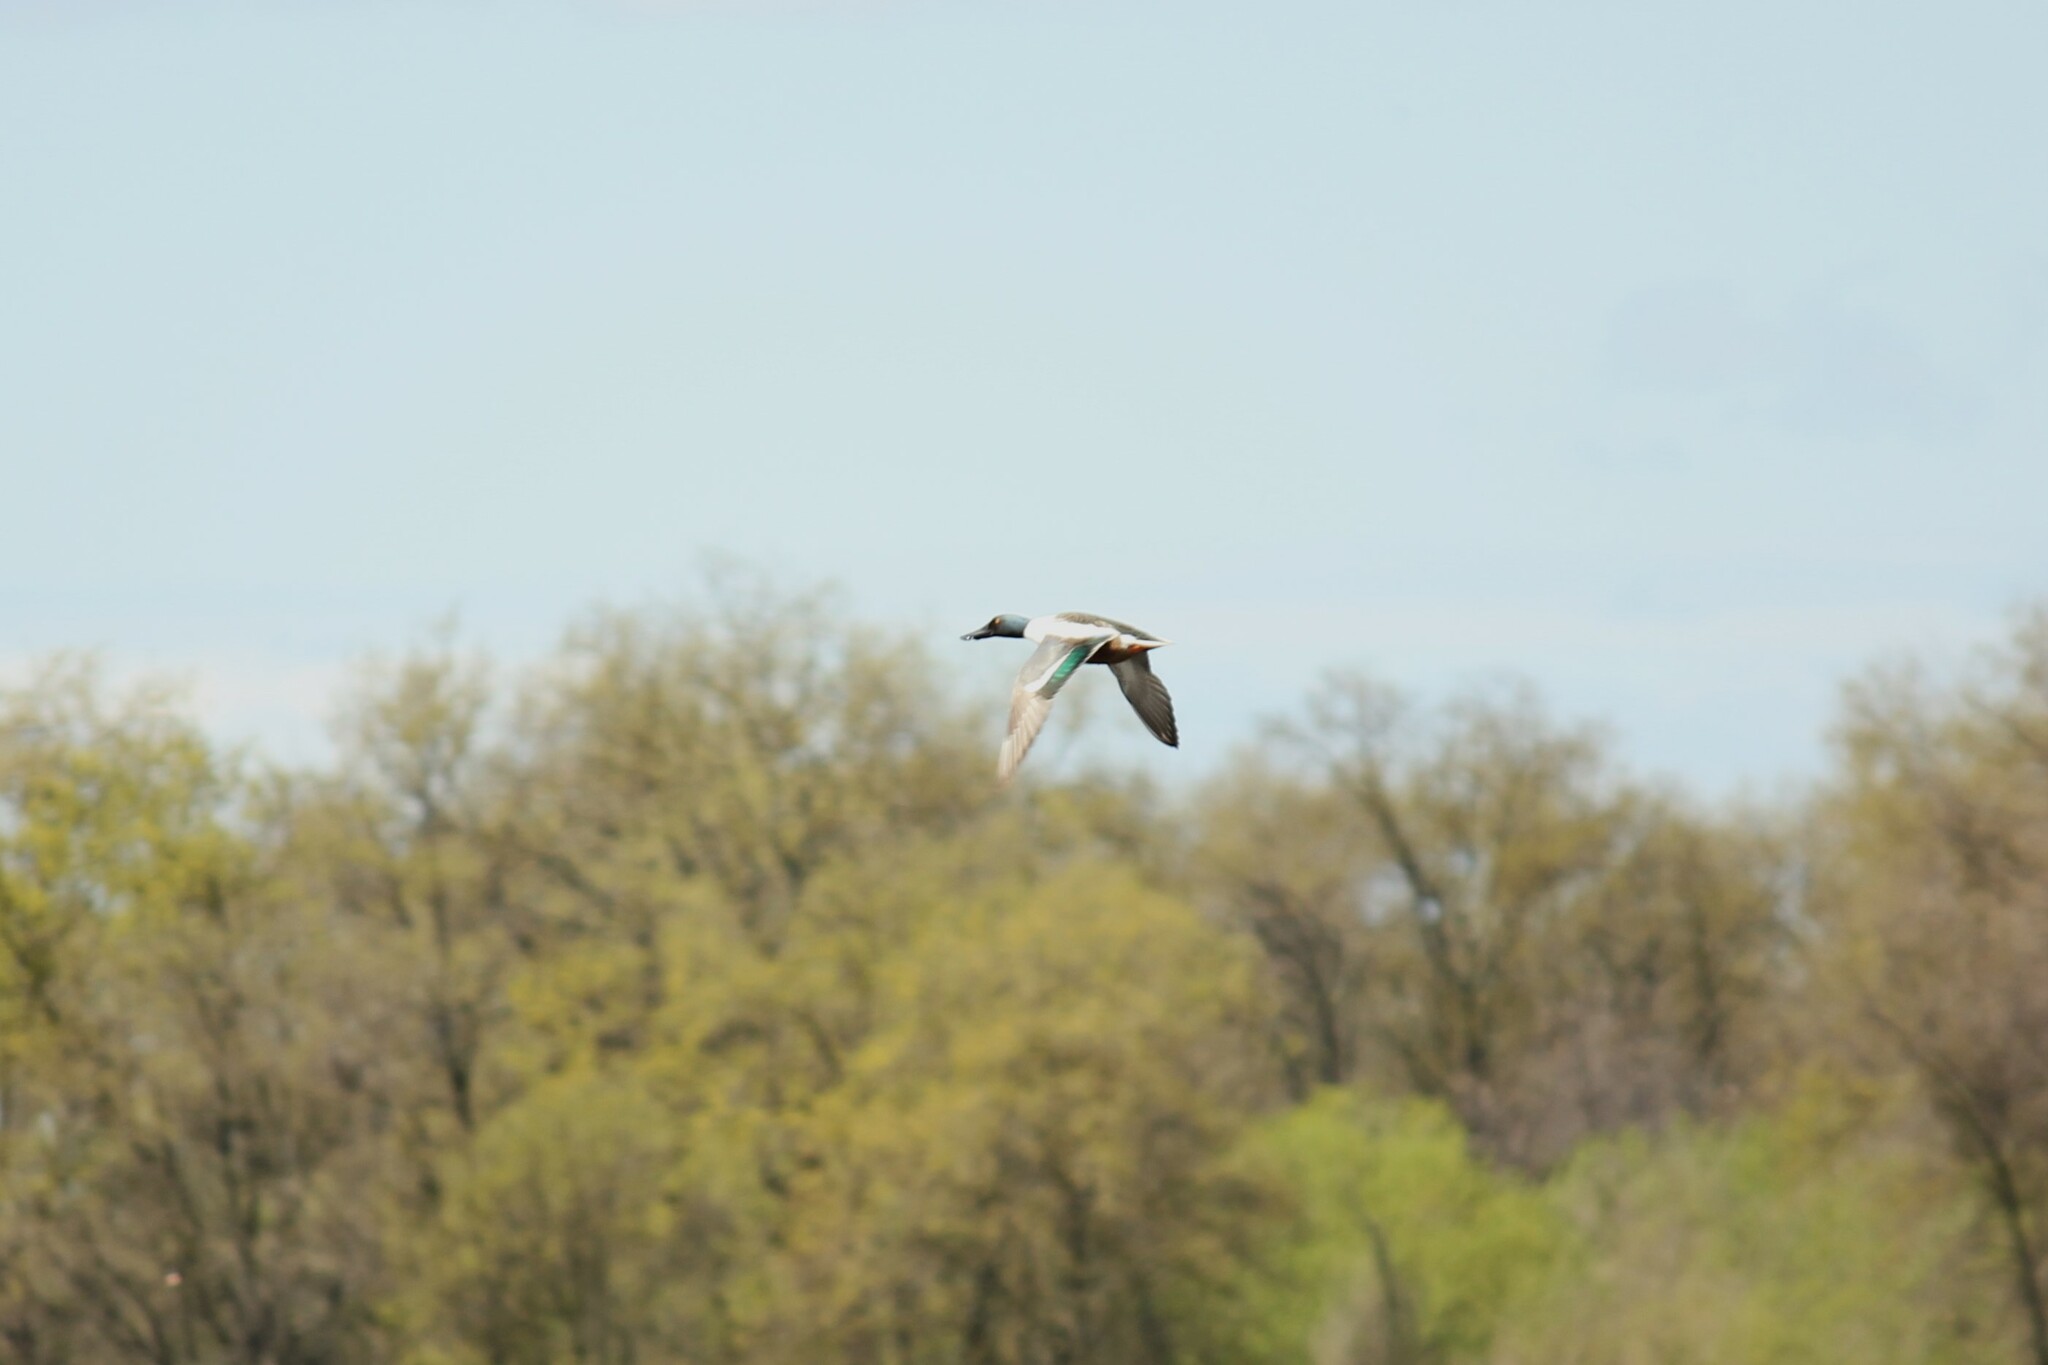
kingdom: Animalia
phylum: Chordata
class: Aves
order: Anseriformes
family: Anatidae
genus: Spatula
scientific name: Spatula clypeata
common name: Northern shoveler
